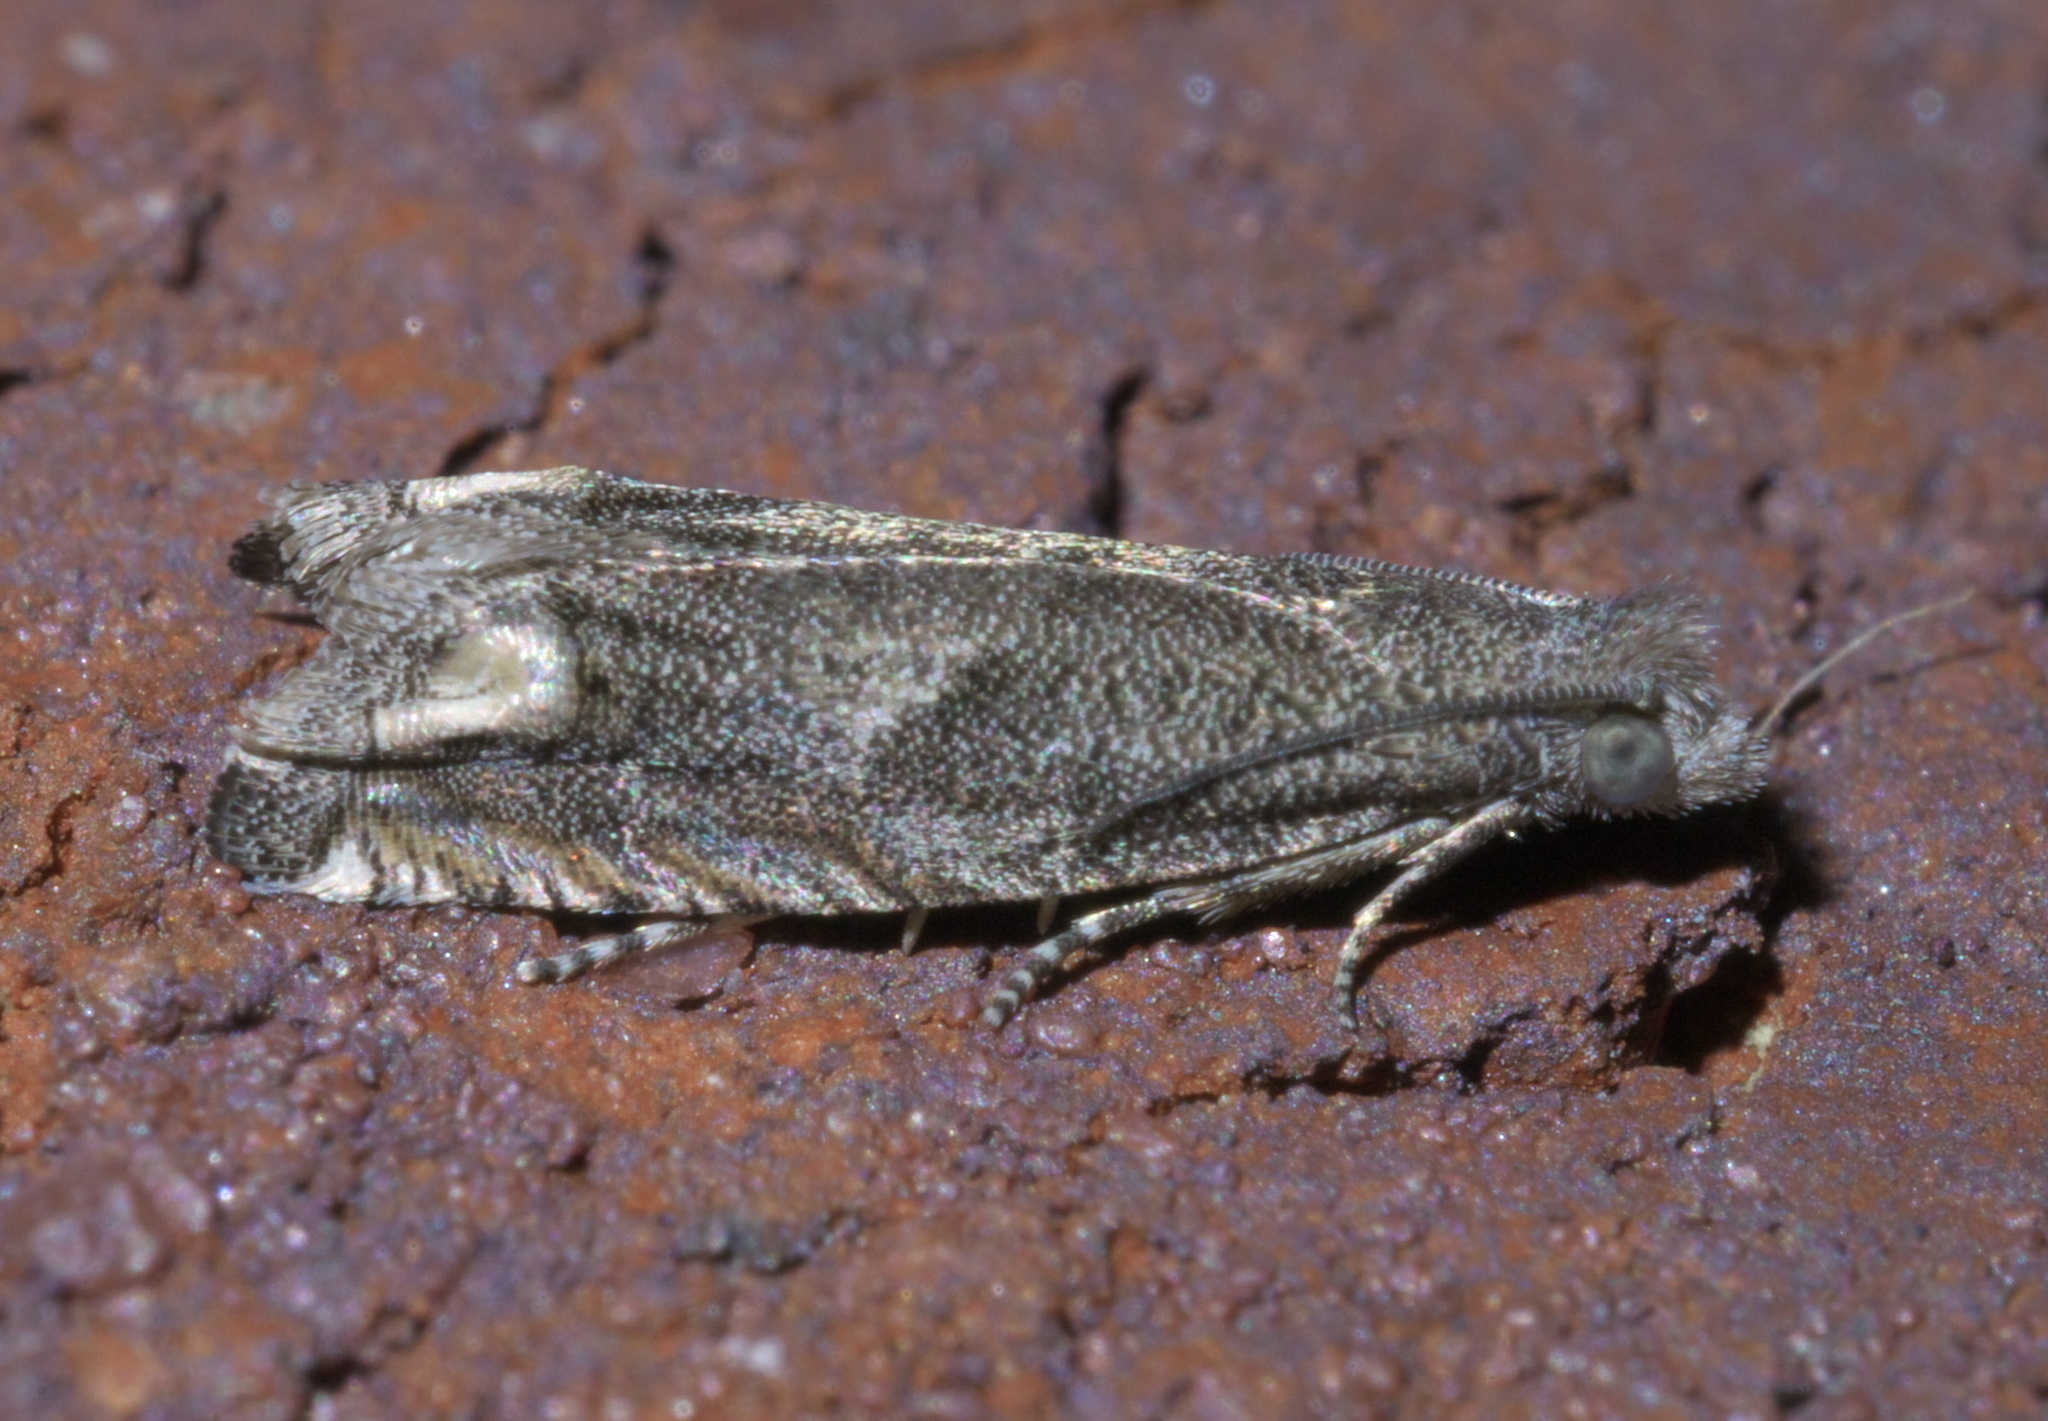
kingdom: Animalia
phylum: Arthropoda
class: Insecta
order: Lepidoptera
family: Tortricidae
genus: Epiblema
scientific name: Epiblema strenuana
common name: Ragweed borer moth
